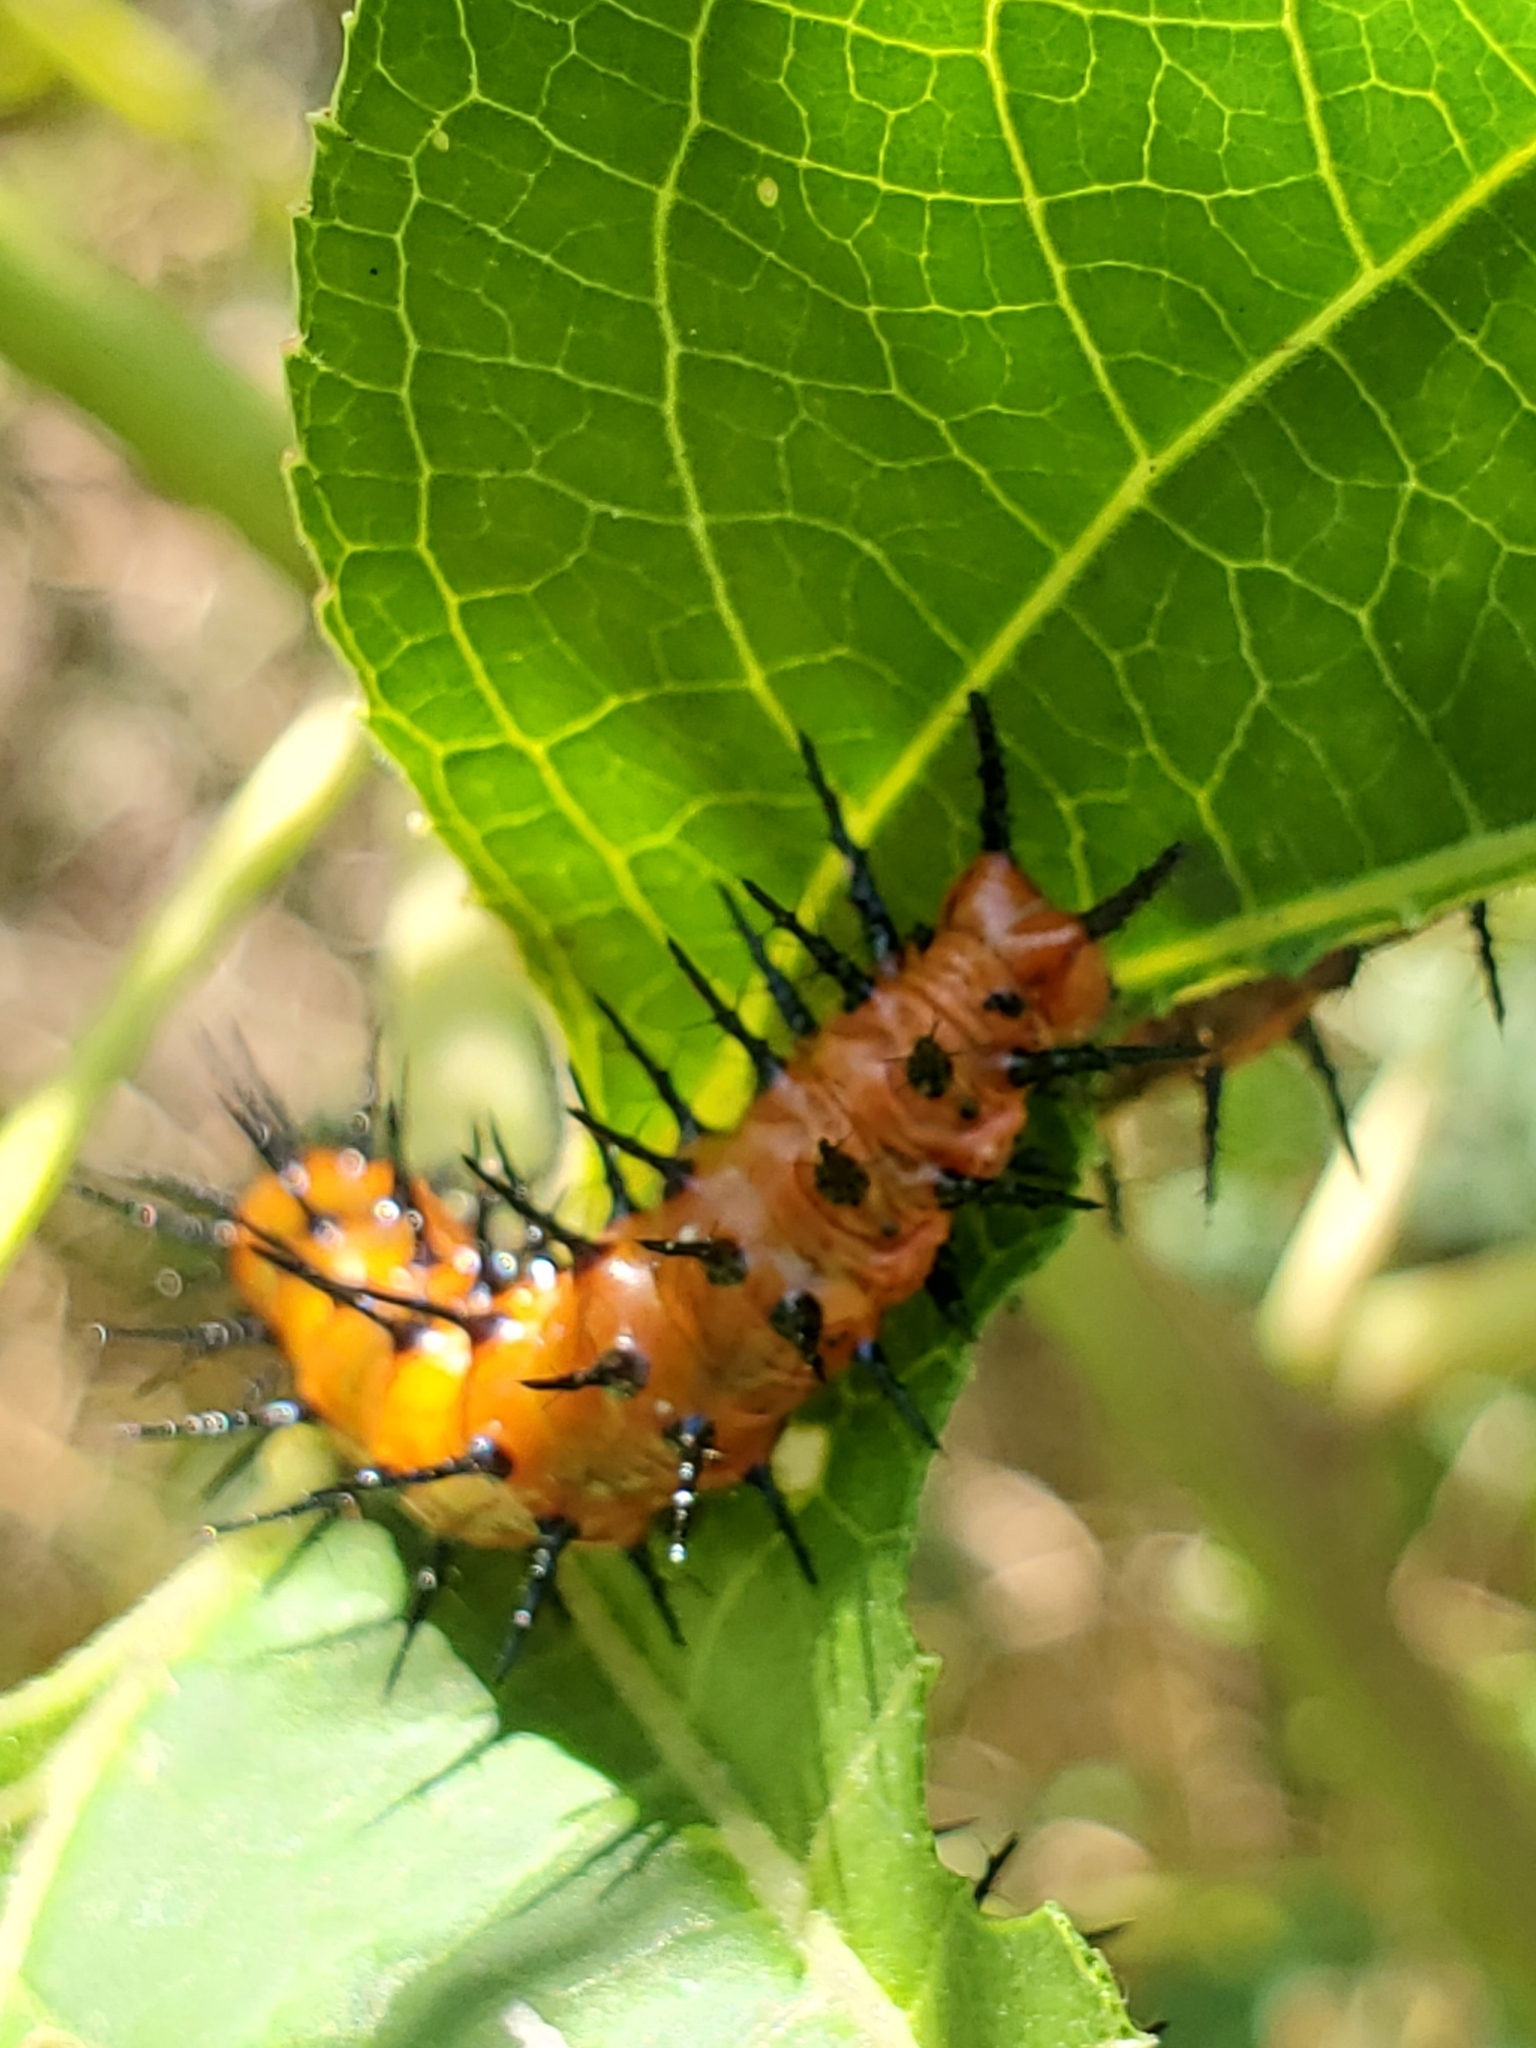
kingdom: Animalia
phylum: Arthropoda
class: Insecta
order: Lepidoptera
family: Nymphalidae
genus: Dione
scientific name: Dione vanillae
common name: Gulf fritillary
